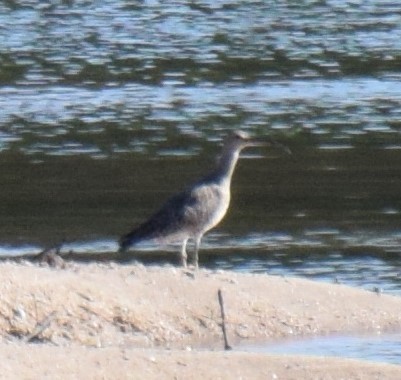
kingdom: Animalia
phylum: Chordata
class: Aves
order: Charadriiformes
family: Scolopacidae
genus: Numenius
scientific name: Numenius phaeopus
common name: Whimbrel
